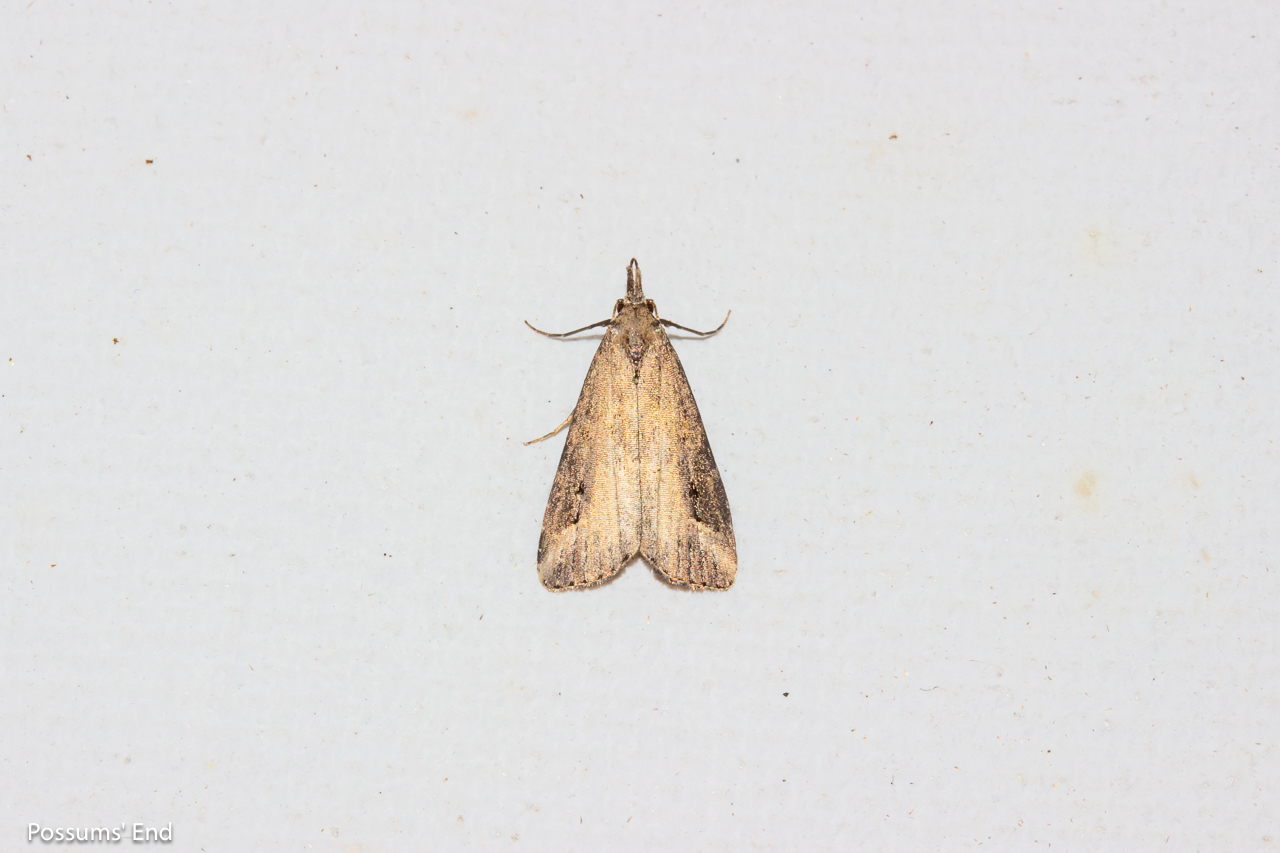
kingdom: Animalia
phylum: Arthropoda
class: Insecta
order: Lepidoptera
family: Erebidae
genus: Schrankia
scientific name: Schrankia costaestrigalis
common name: Pinion-streaked snout
